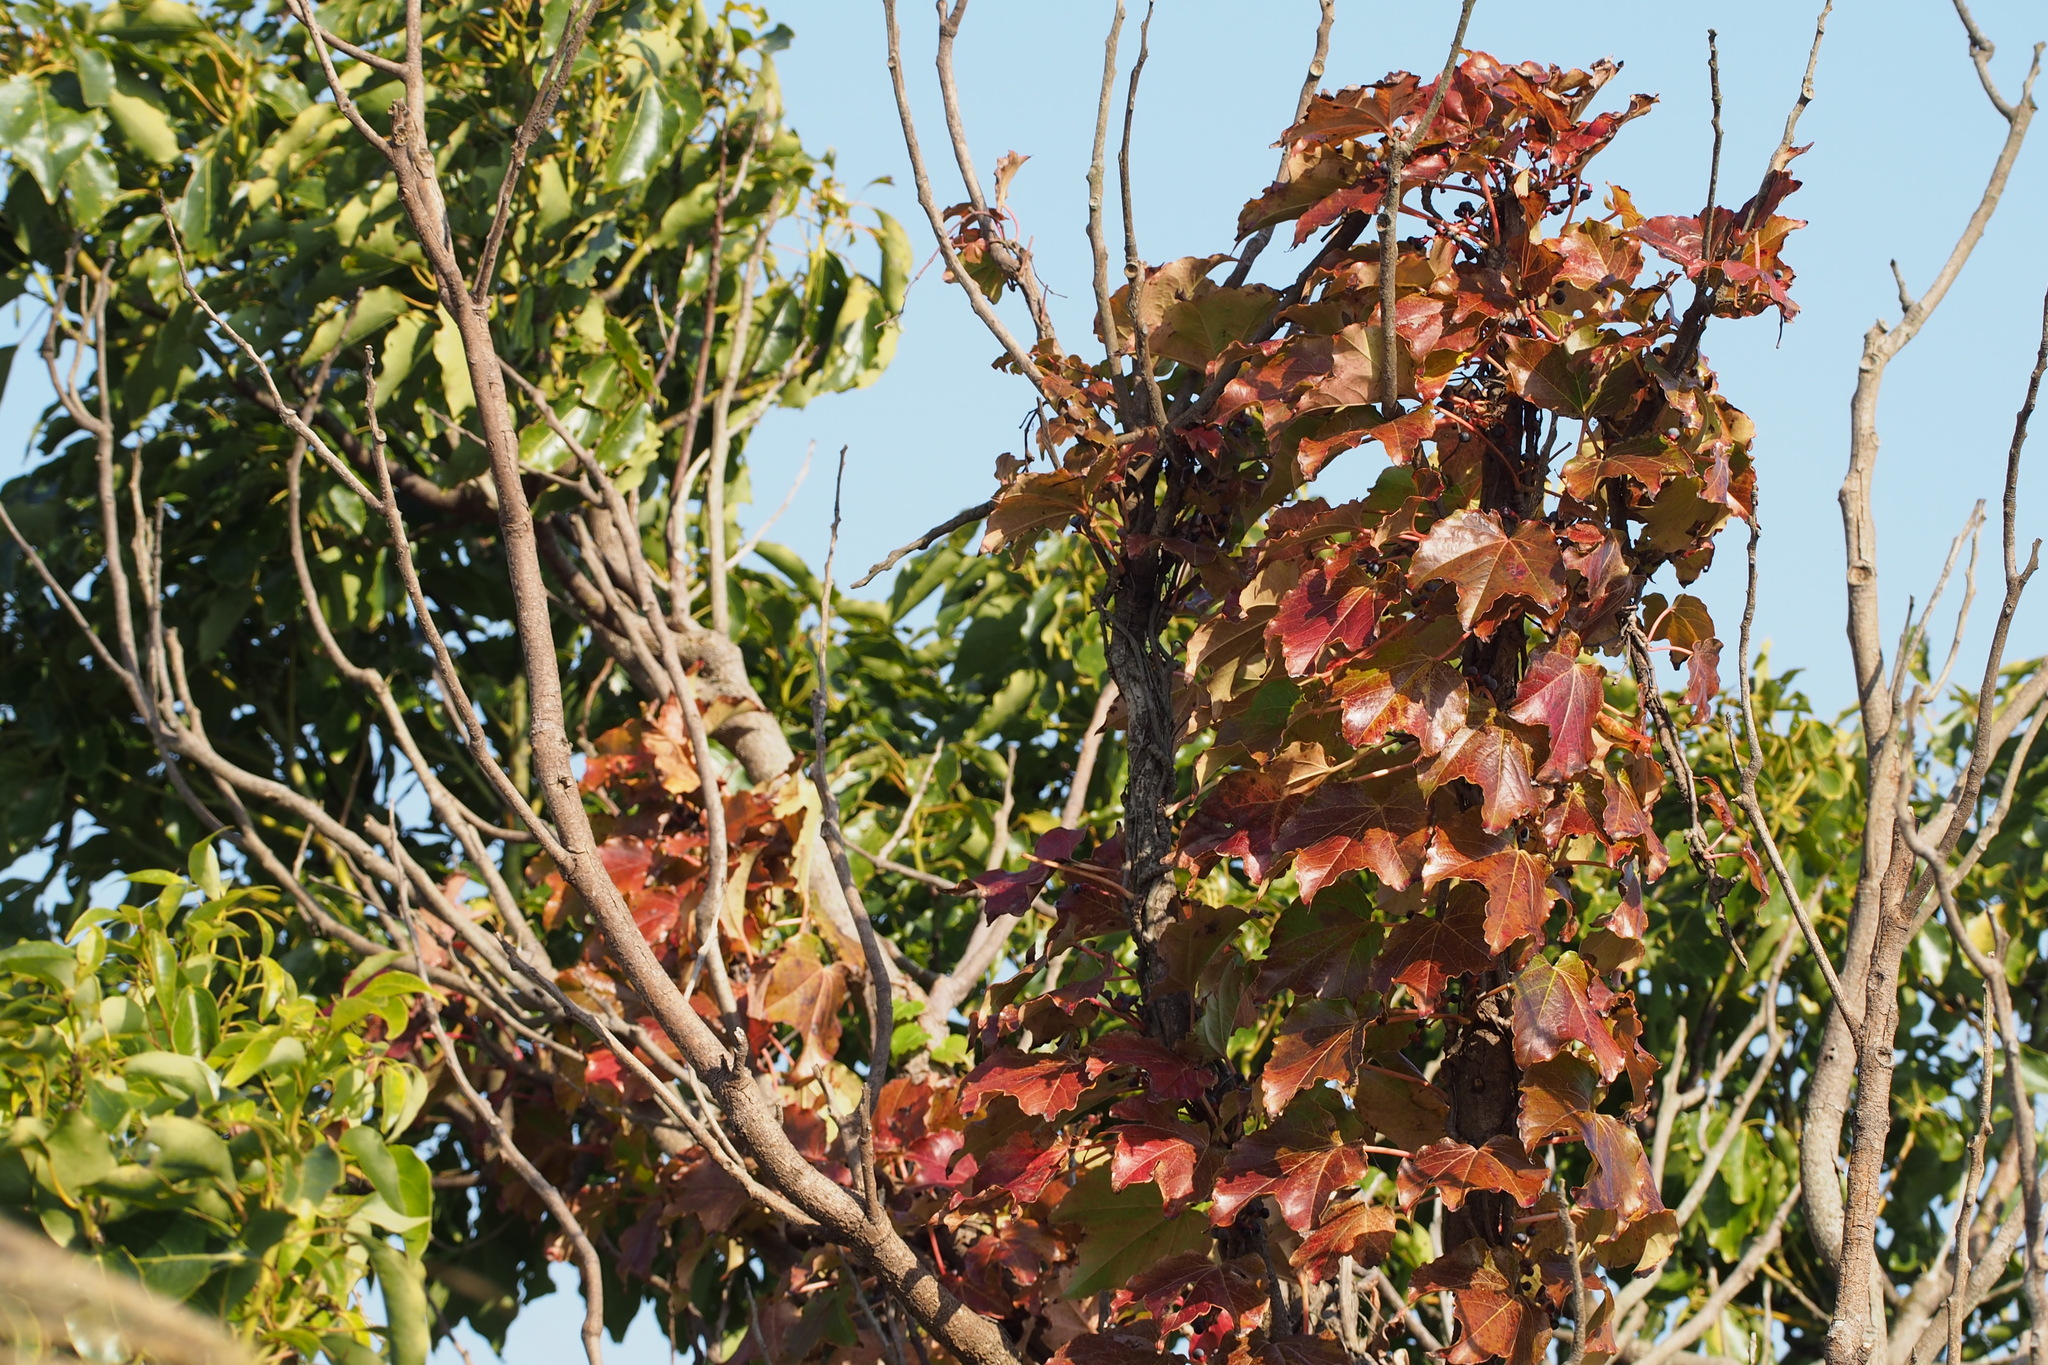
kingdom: Plantae
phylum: Tracheophyta
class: Magnoliopsida
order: Vitales
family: Vitaceae
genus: Parthenocissus
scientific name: Parthenocissus tricuspidata
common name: Boston ivy
